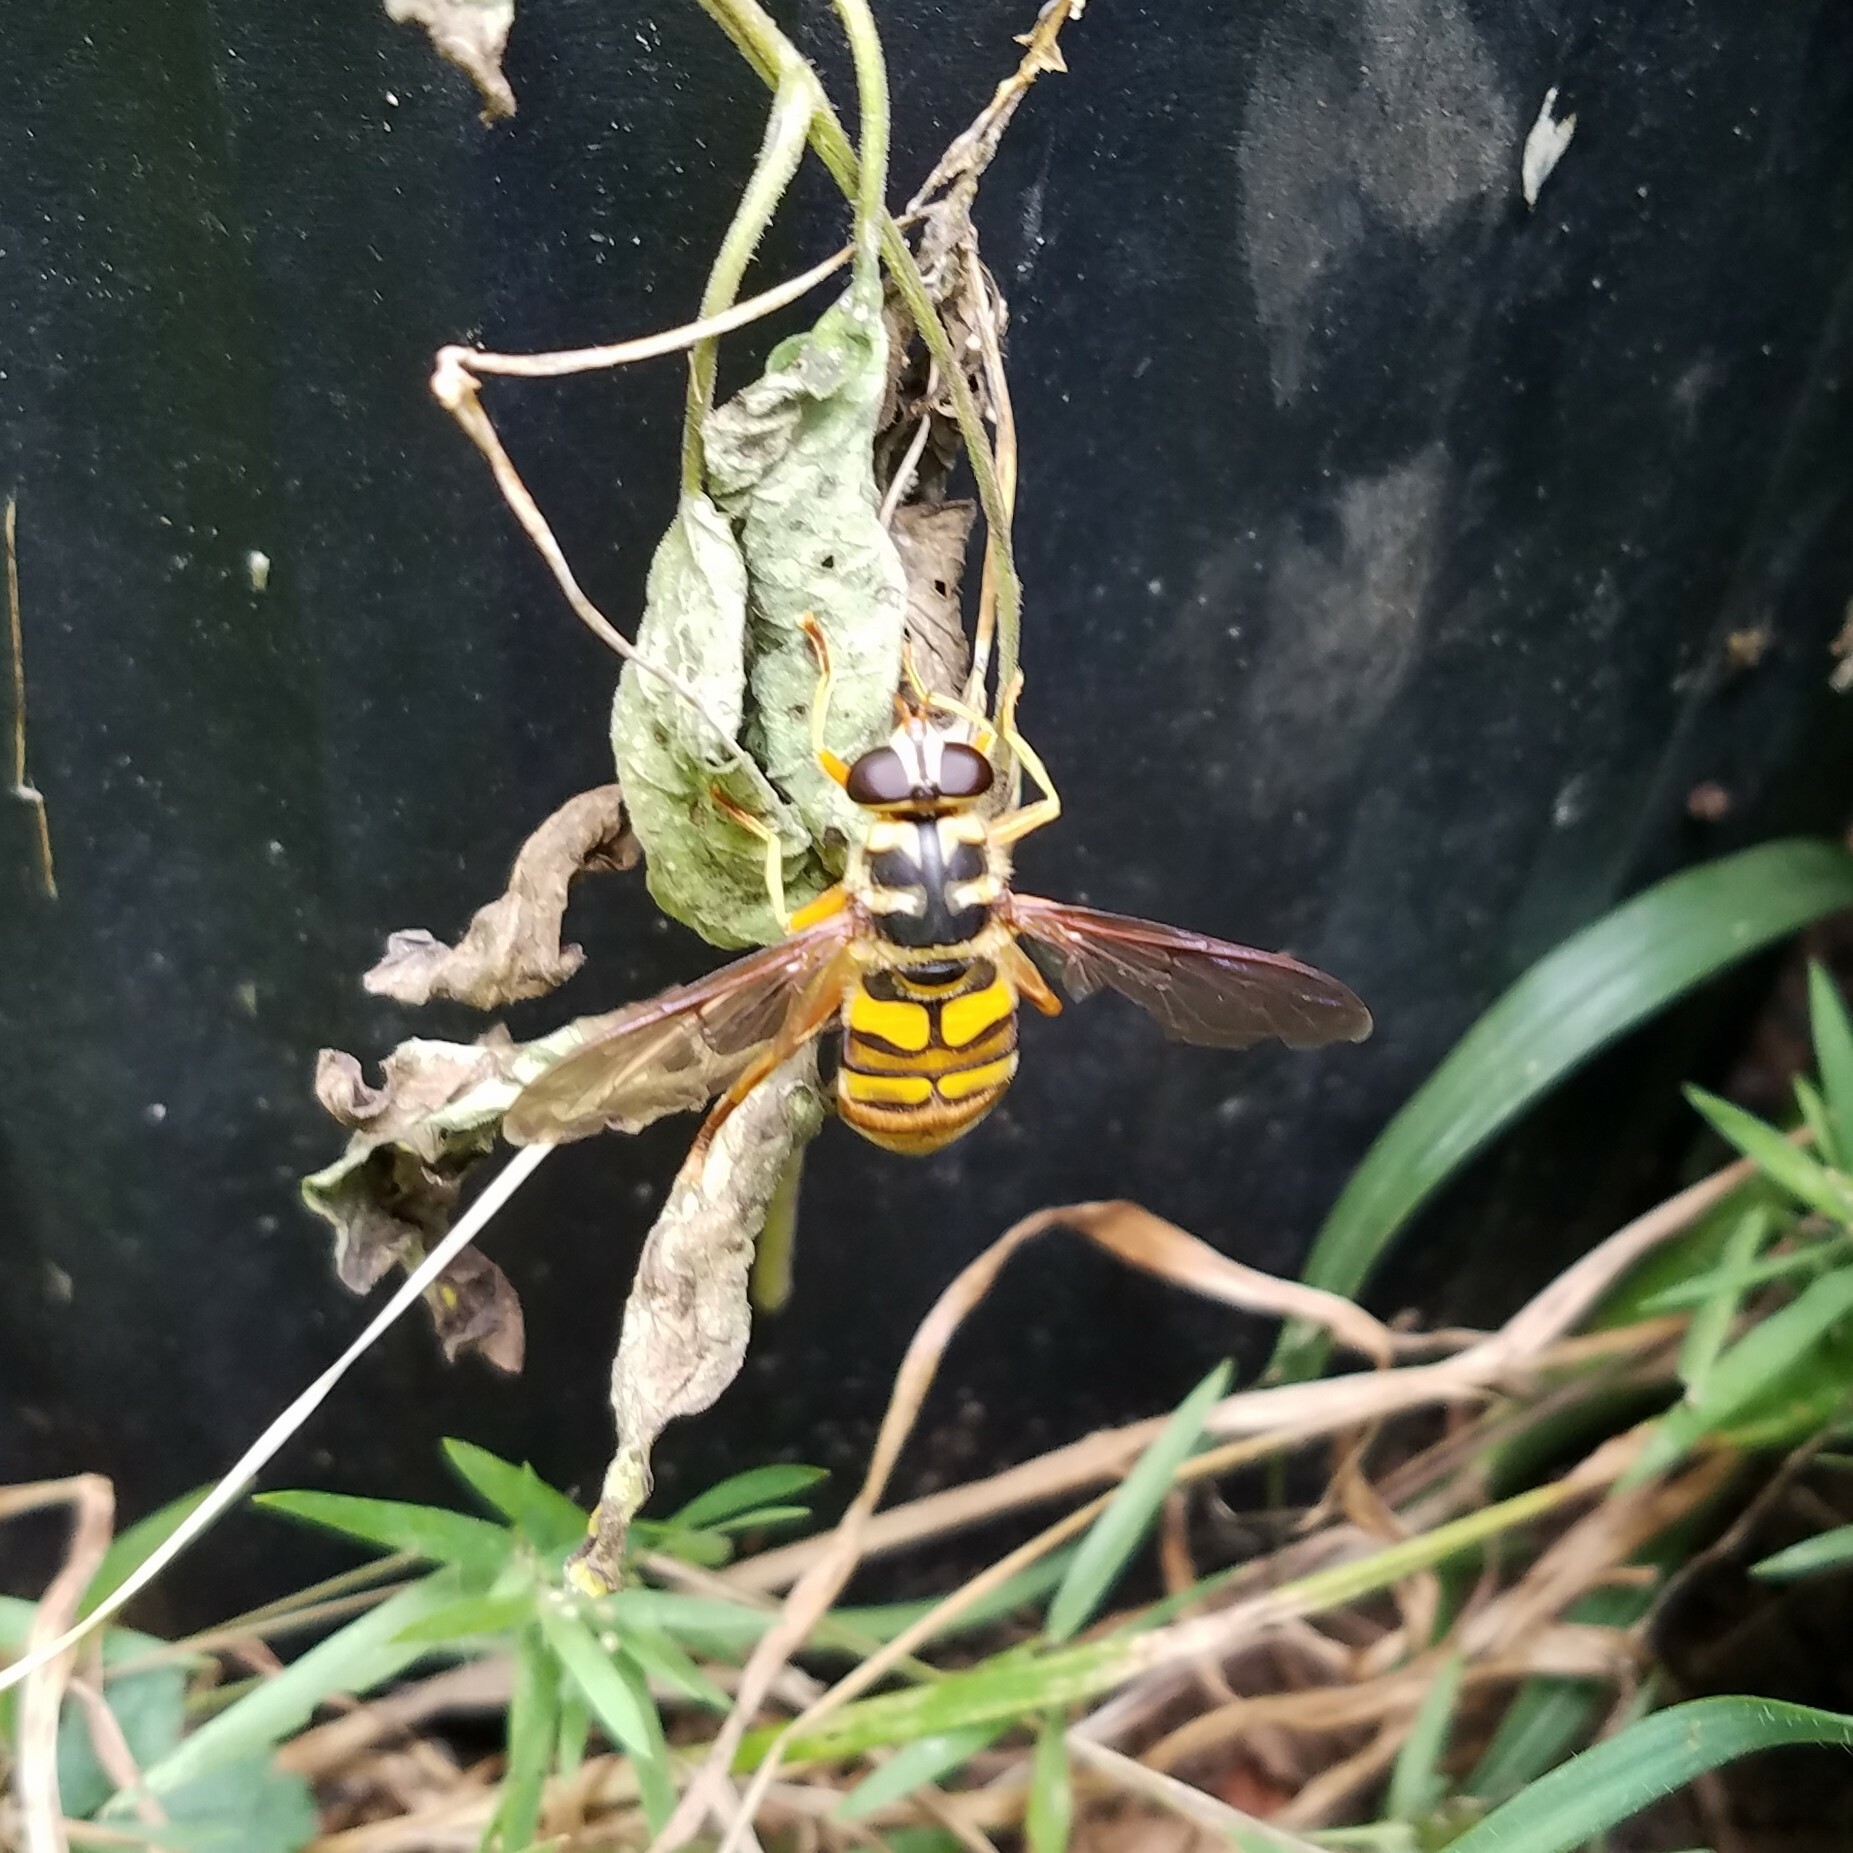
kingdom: Animalia
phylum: Arthropoda
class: Insecta
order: Diptera
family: Syrphidae
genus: Milesia
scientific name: Milesia virginiensis
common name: Virginia giant
